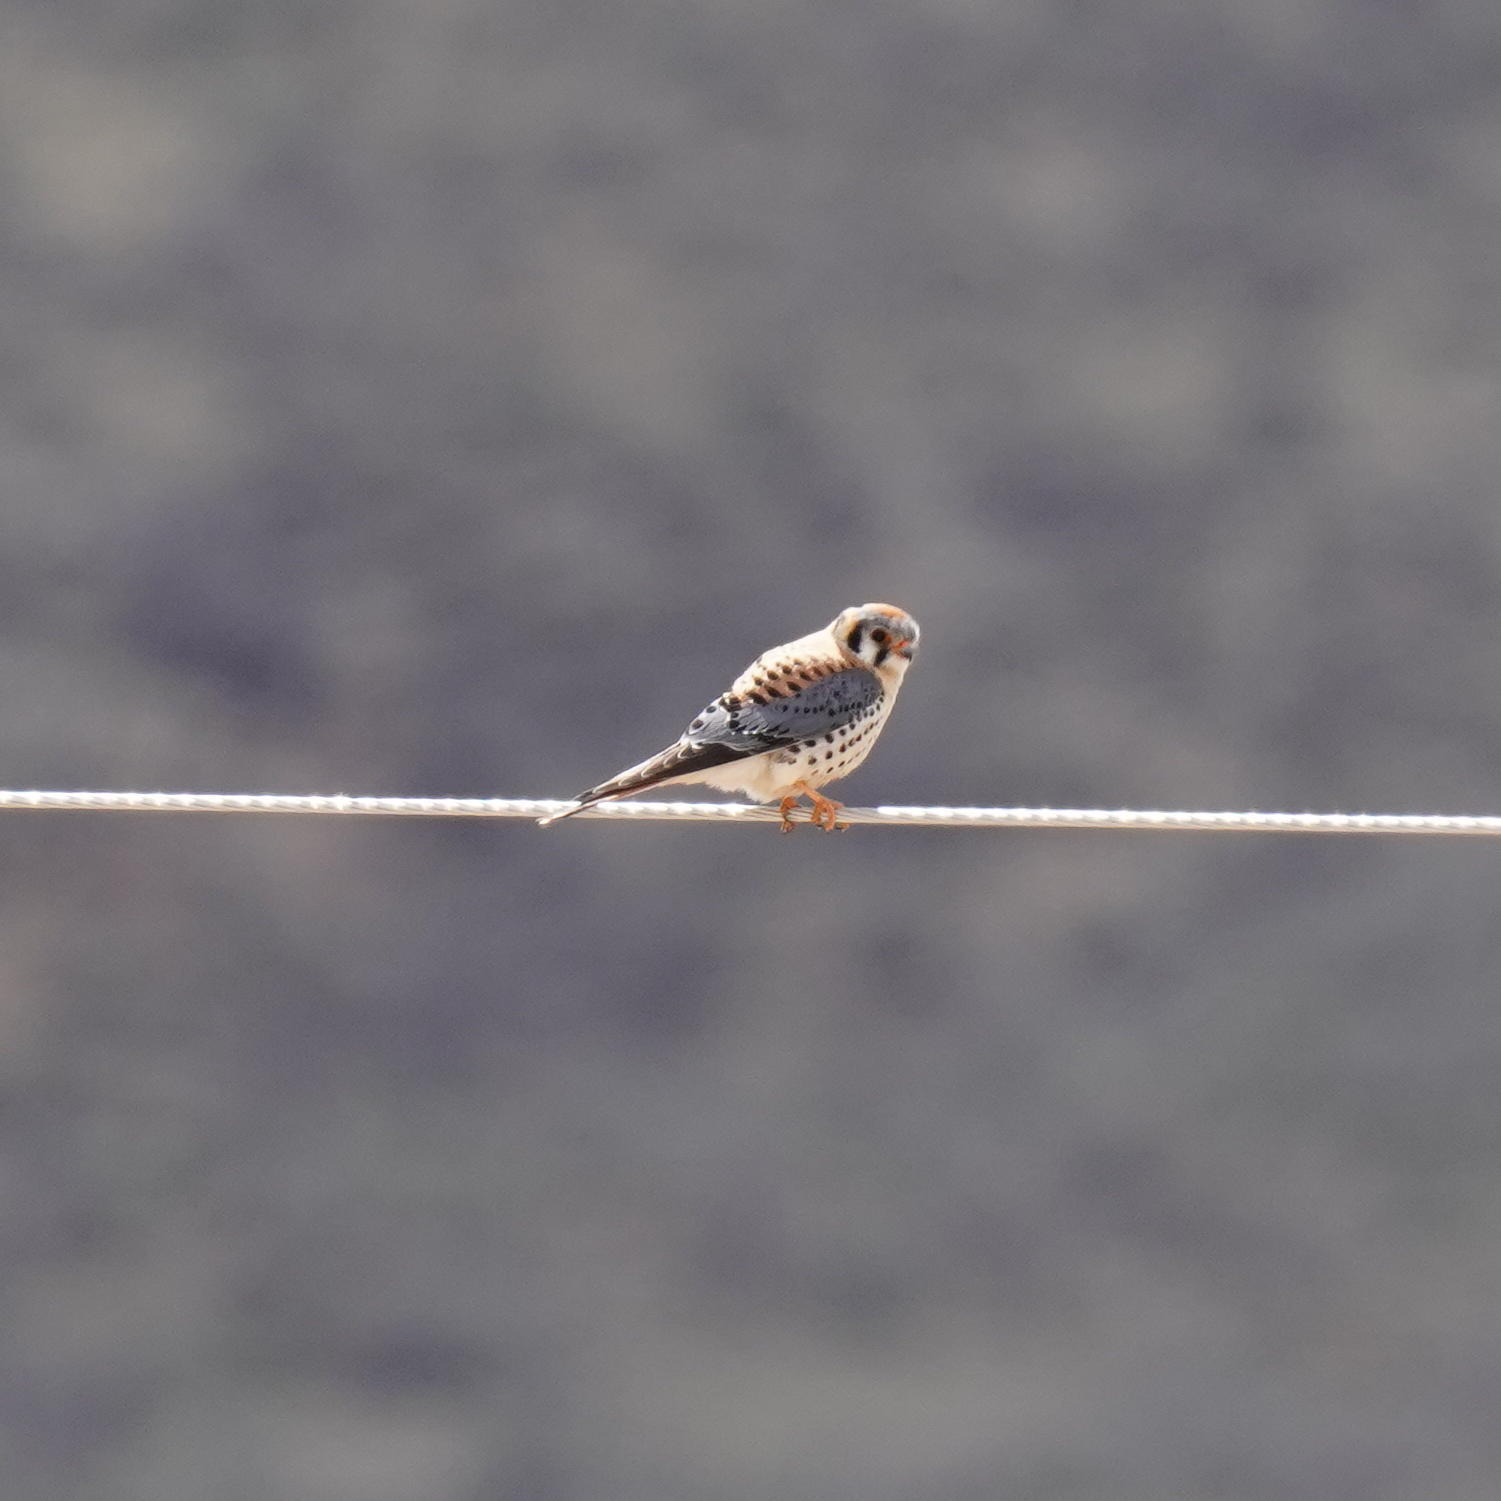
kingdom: Animalia
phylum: Chordata
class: Aves
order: Falconiformes
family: Falconidae
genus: Falco
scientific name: Falco sparverius
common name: American kestrel
